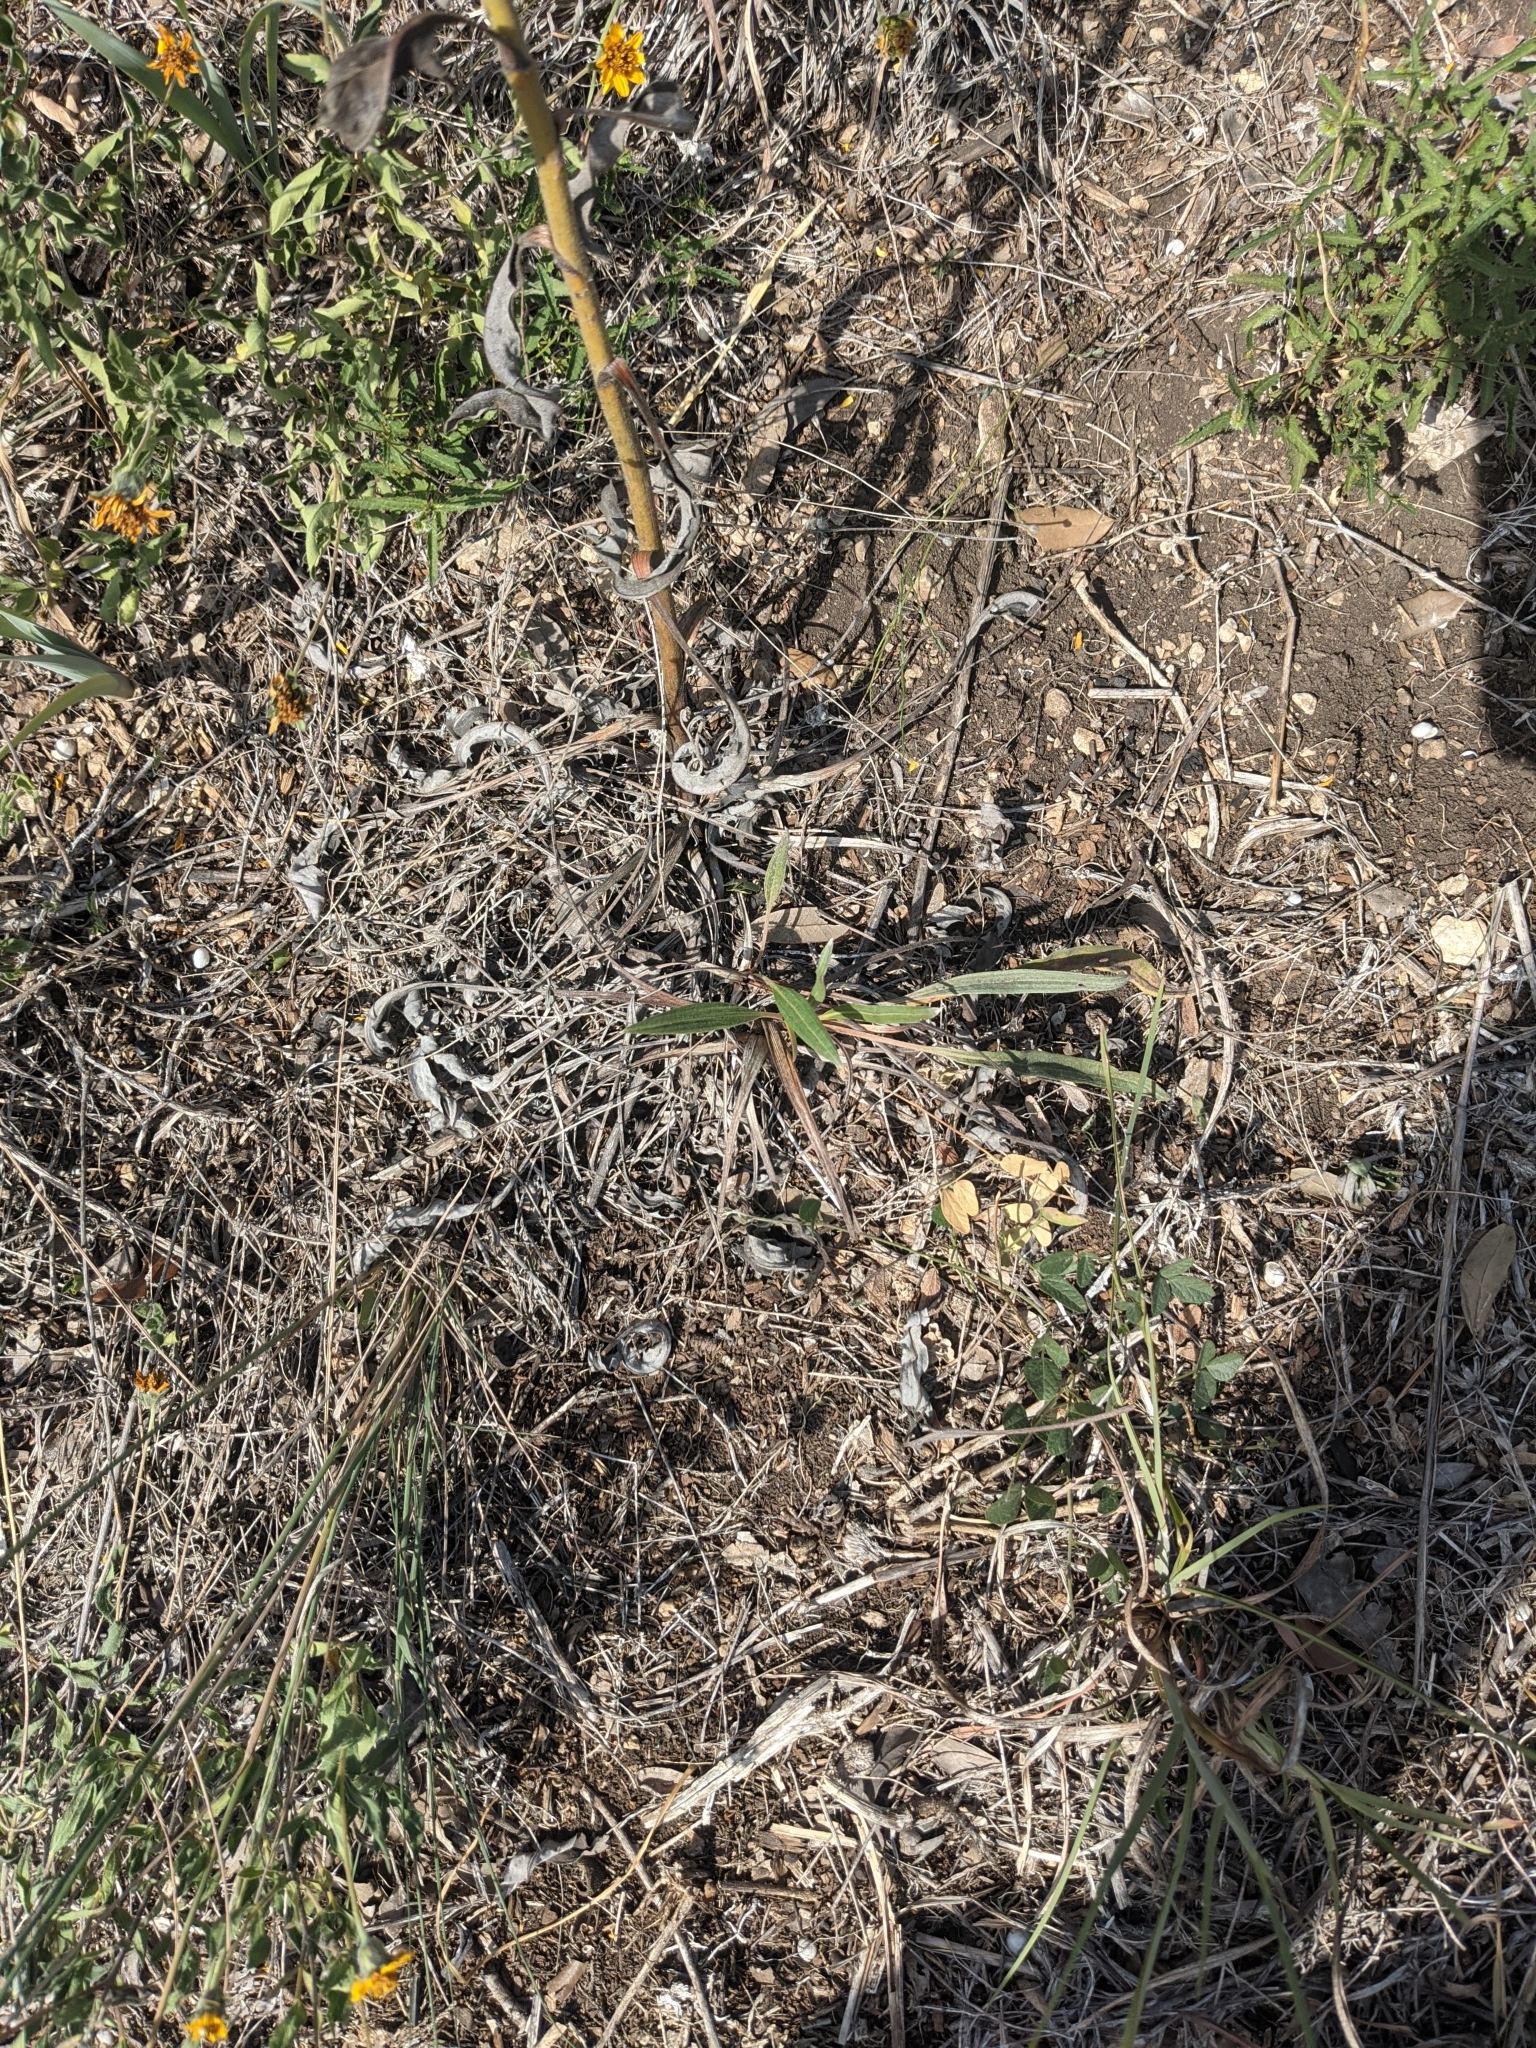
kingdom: Plantae
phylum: Tracheophyta
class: Magnoliopsida
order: Caryophyllales
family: Polygonaceae
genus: Eriogonum
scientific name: Eriogonum longifolium
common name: Longleaf wild buckwheat
